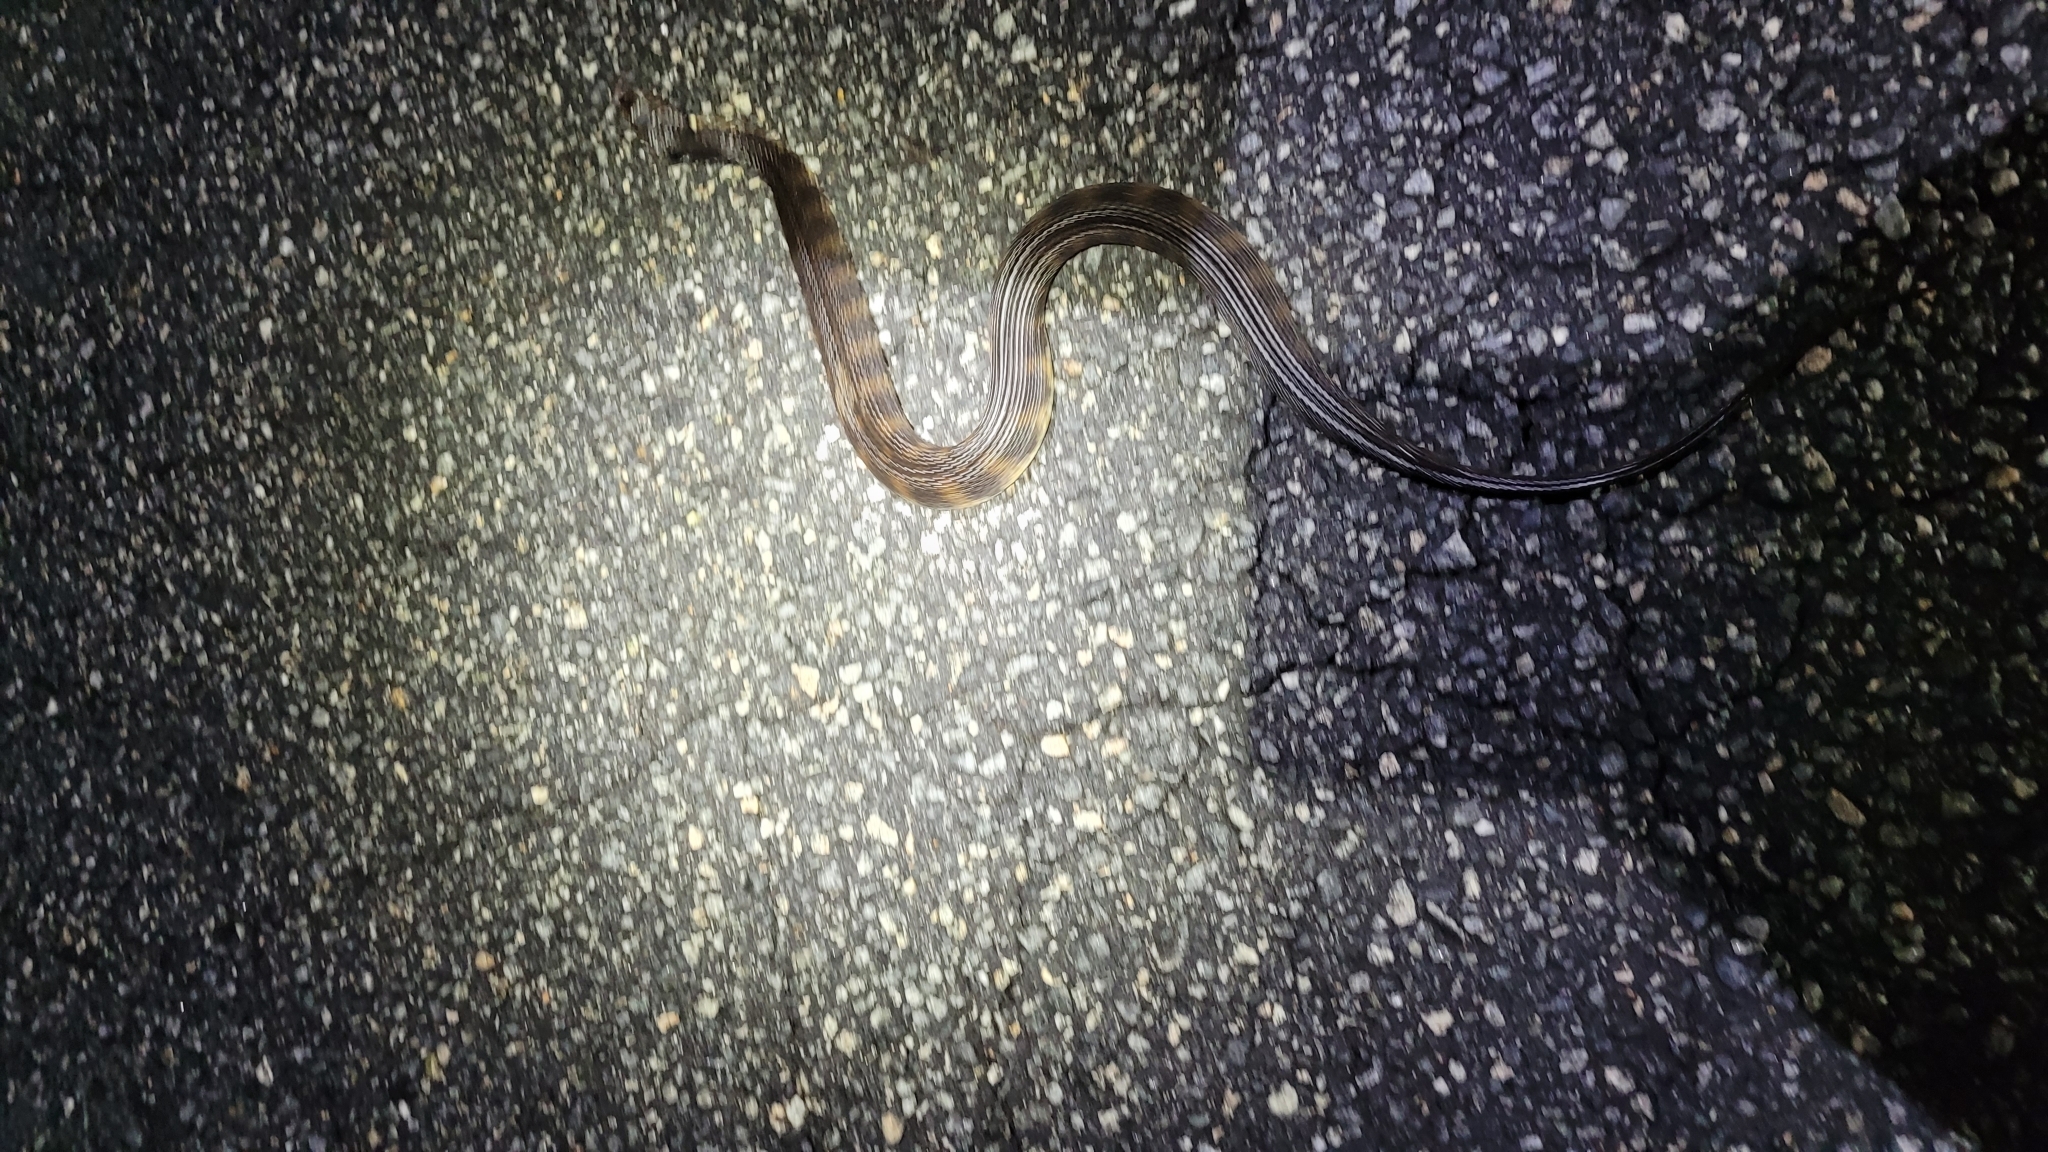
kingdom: Animalia
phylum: Chordata
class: Squamata
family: Colubridae
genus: Nerodia
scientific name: Nerodia fasciata
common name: Southern water snake
